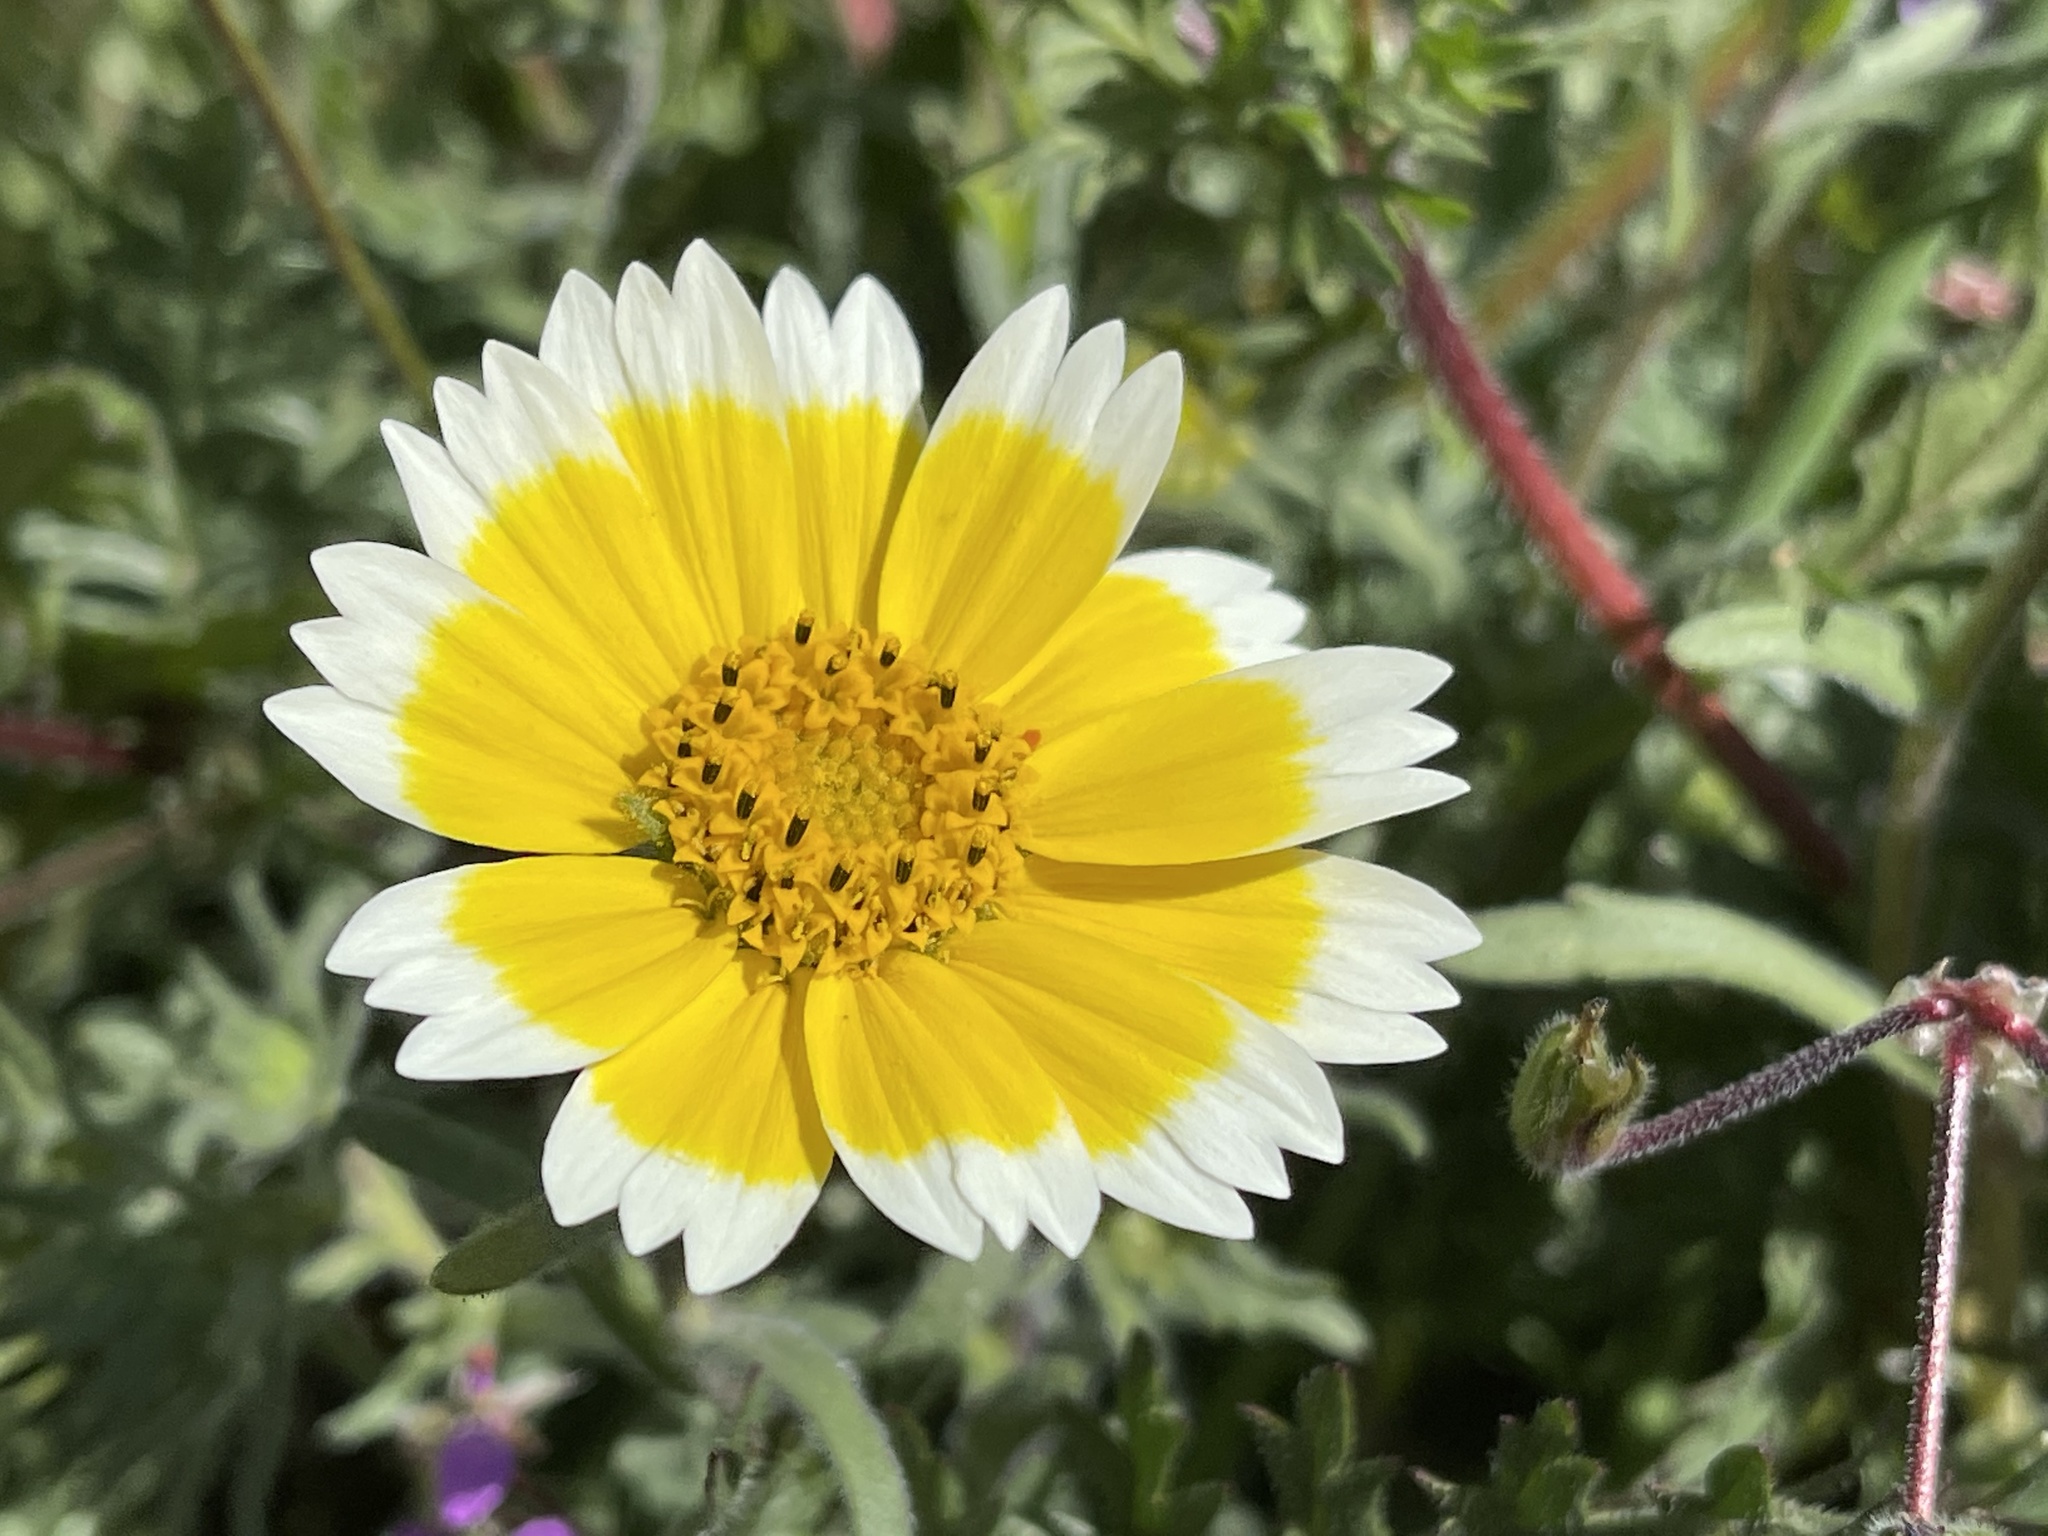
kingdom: Plantae
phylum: Tracheophyta
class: Magnoliopsida
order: Asterales
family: Asteraceae
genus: Layia
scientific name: Layia platyglossa
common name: Tidy-tips
